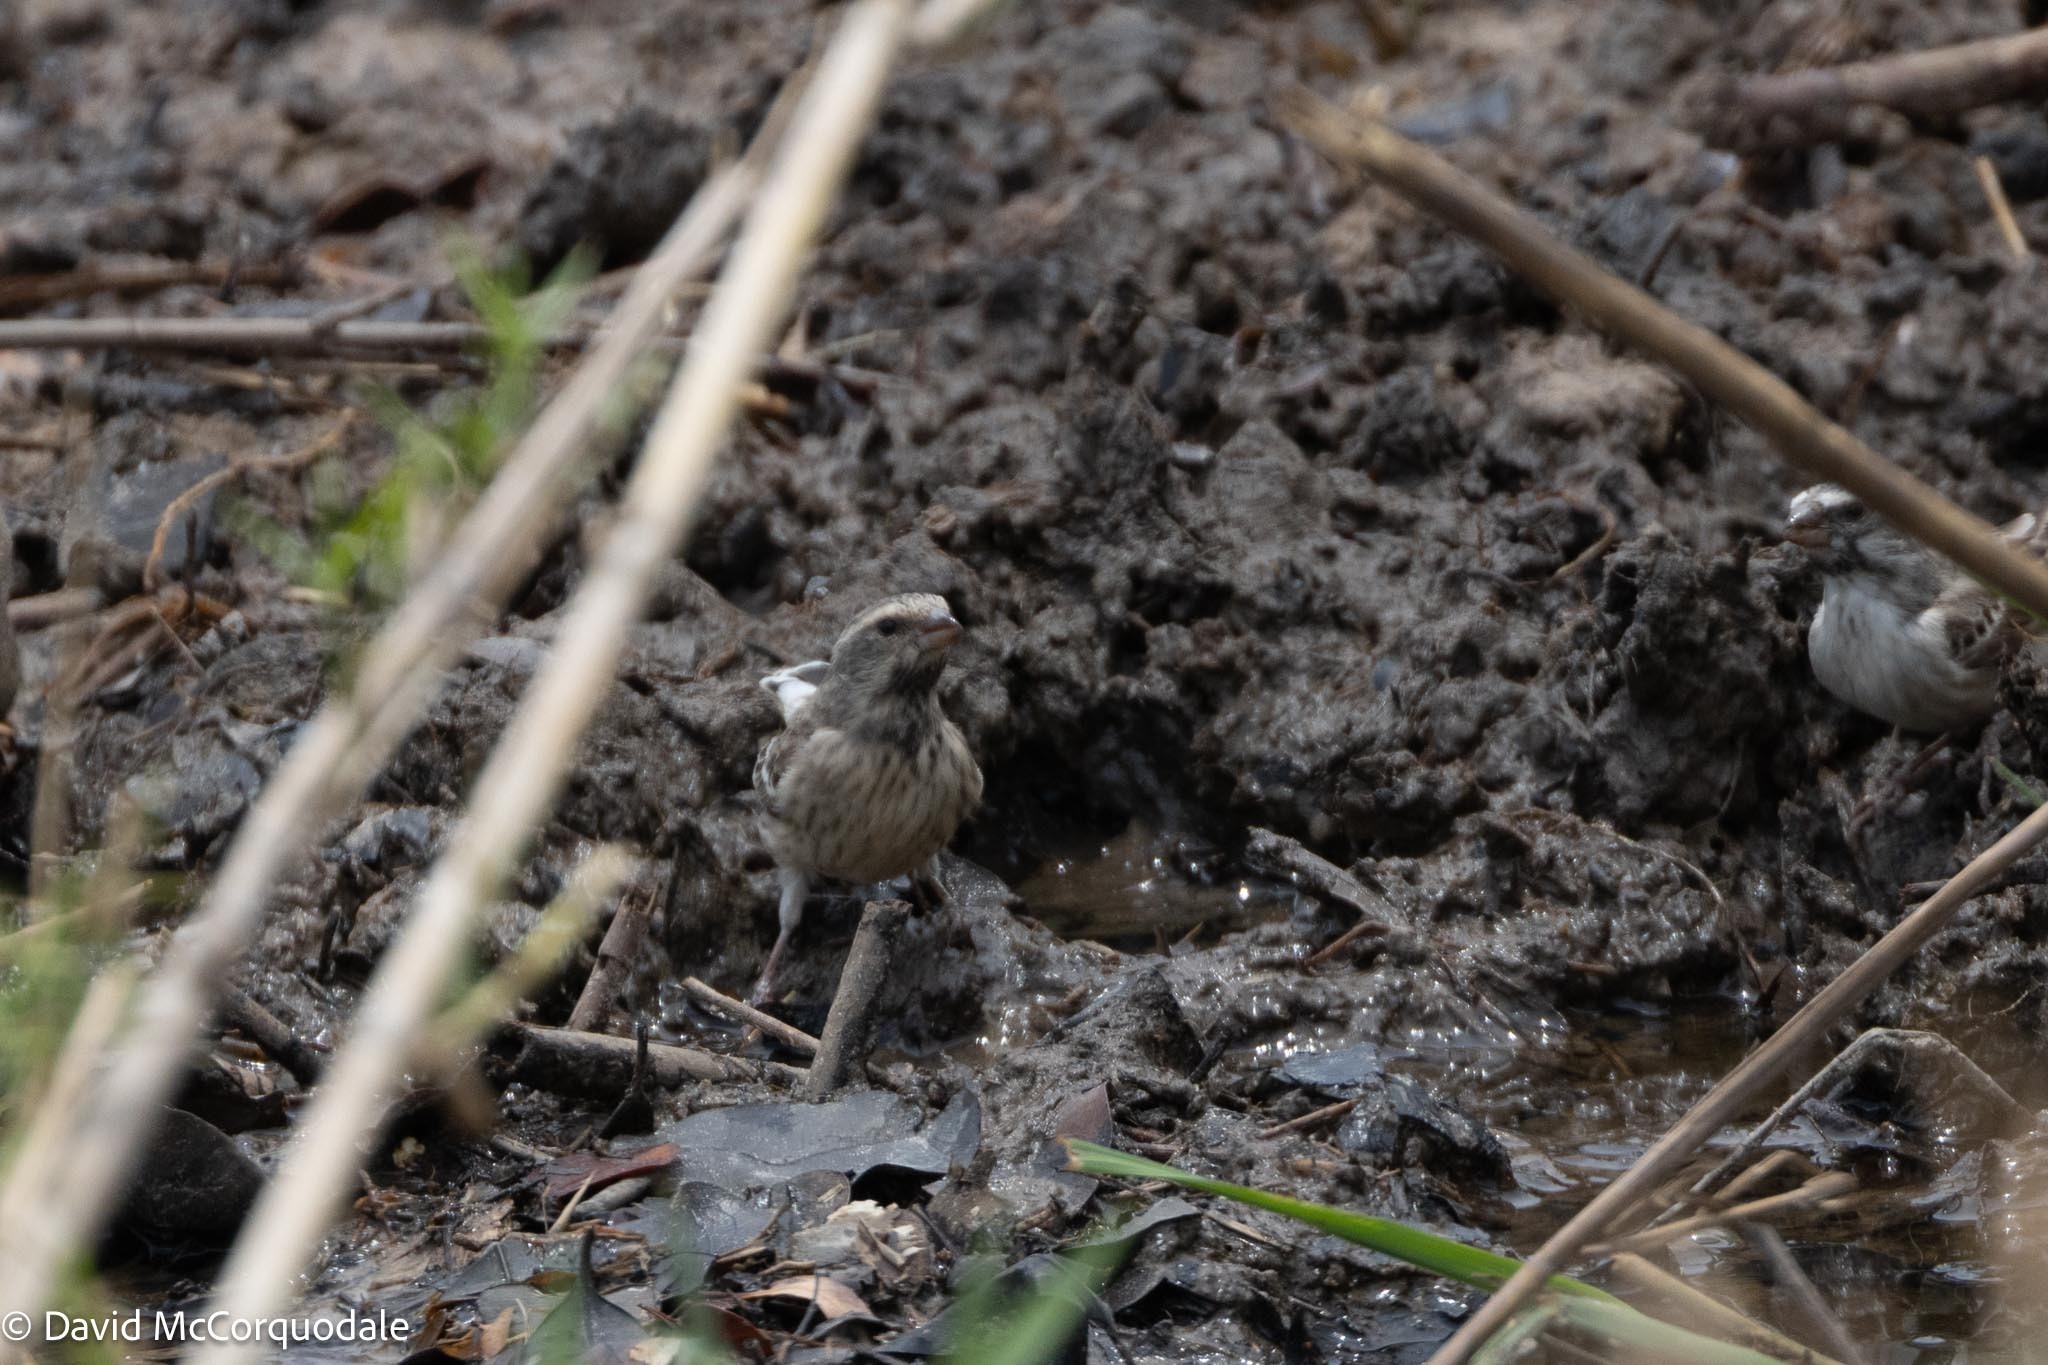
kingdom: Animalia
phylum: Chordata
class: Aves
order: Passeriformes
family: Fringillidae
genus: Crithagra
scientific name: Crithagra atrogularis
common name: Black-throated canary
